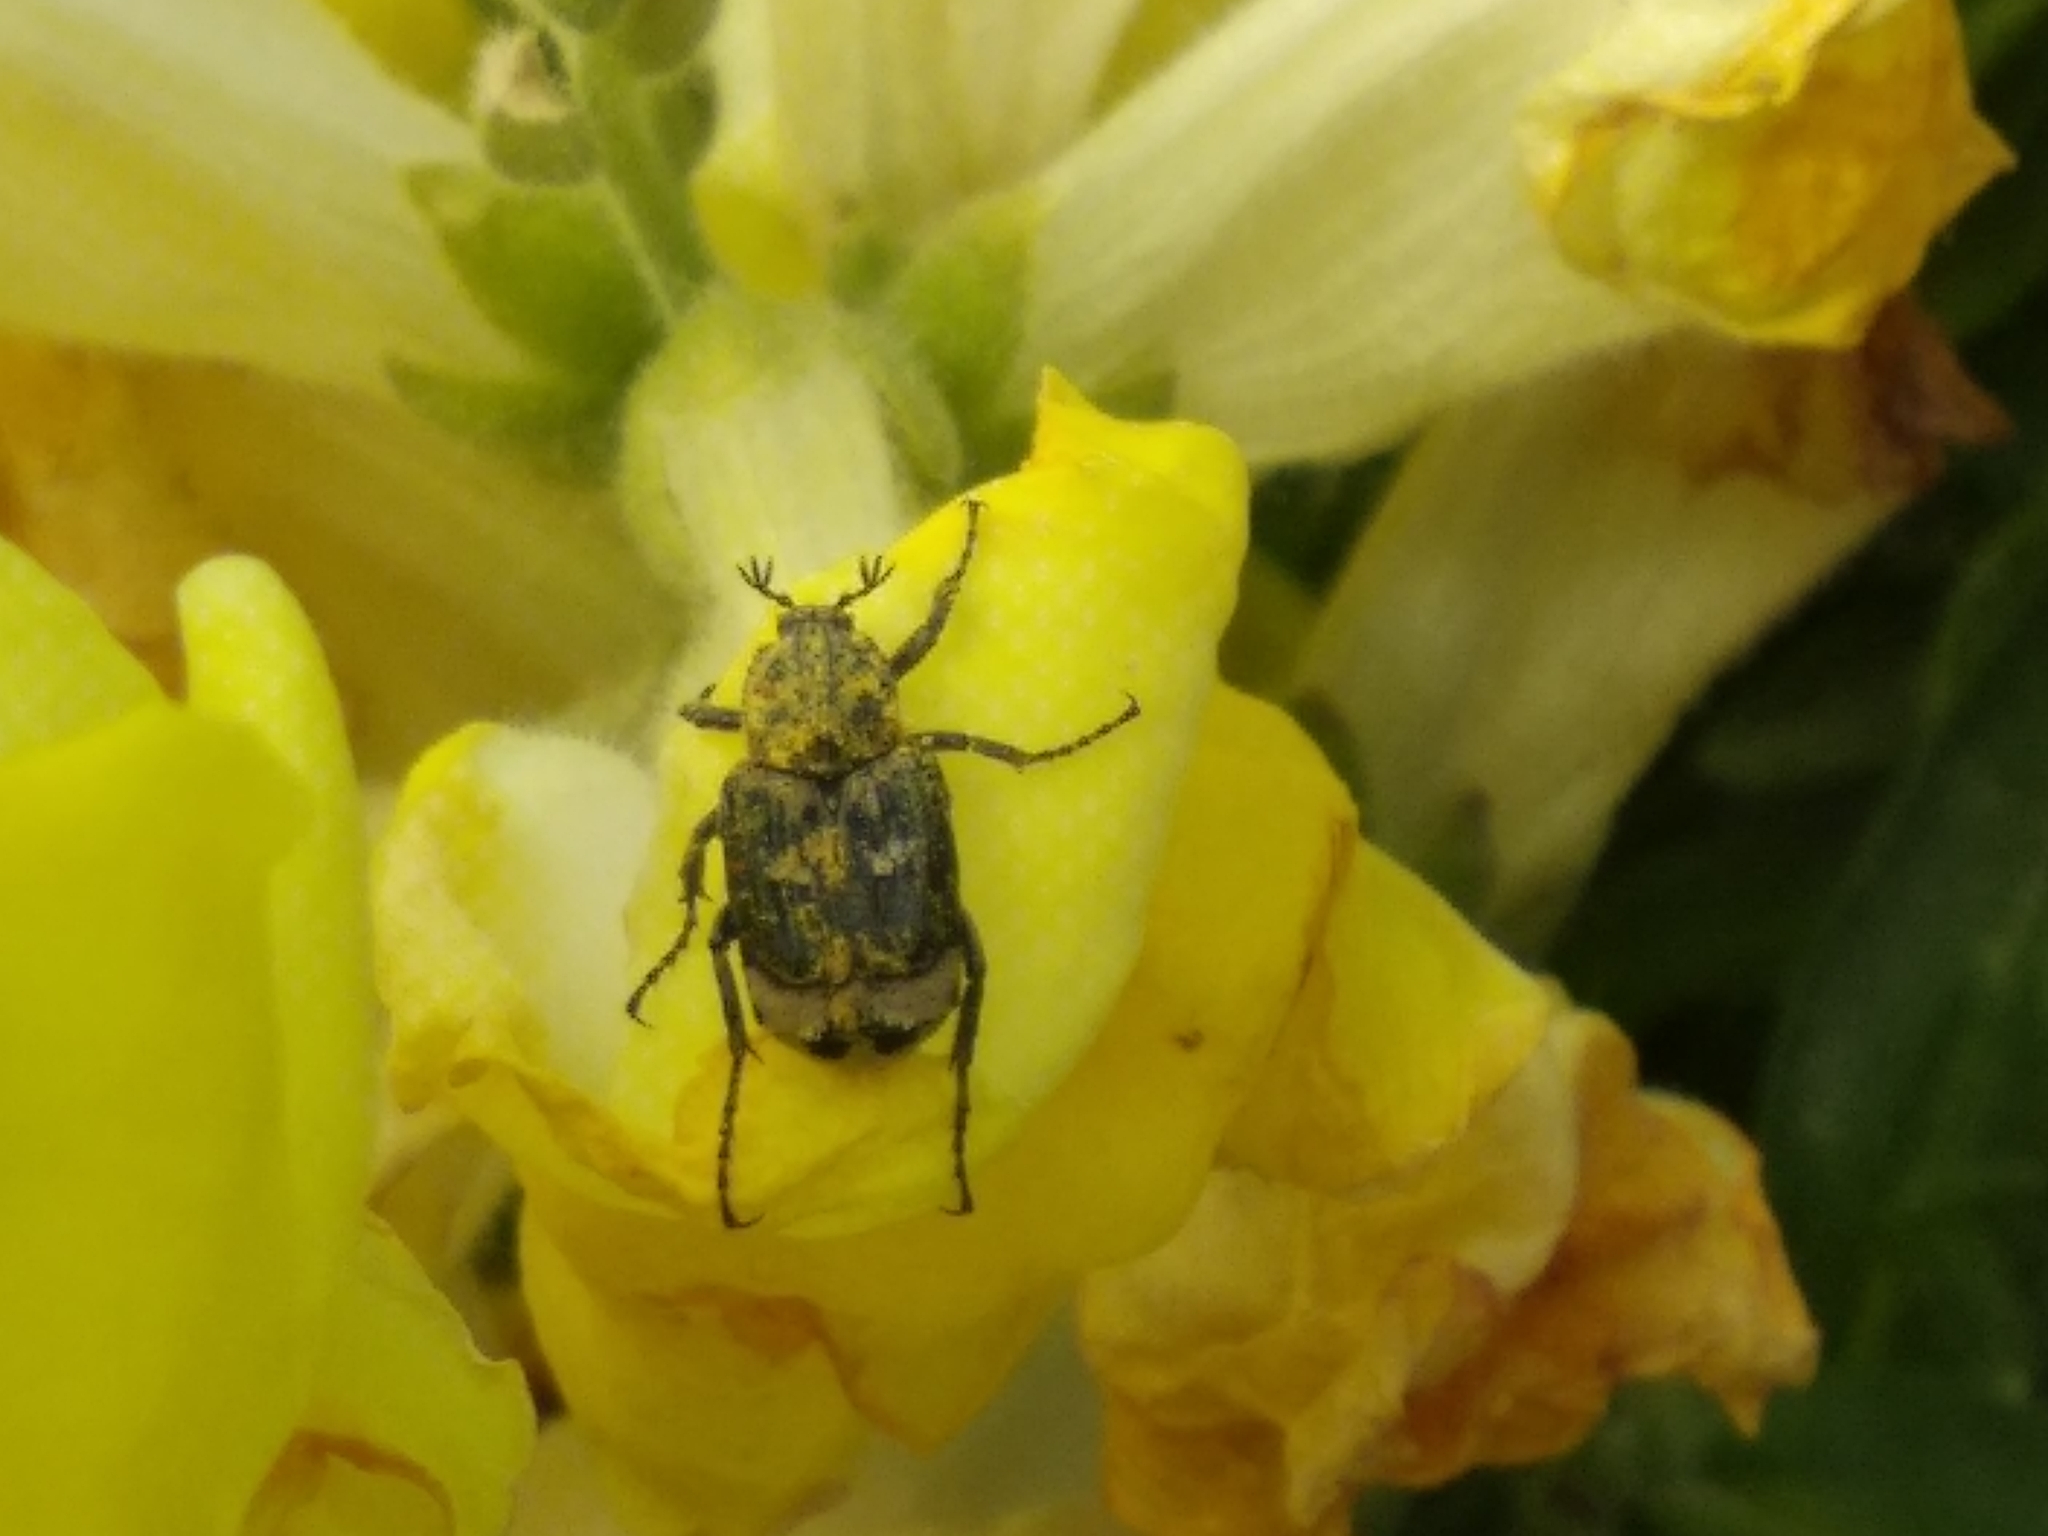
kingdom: Animalia
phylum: Arthropoda
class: Insecta
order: Coleoptera
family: Scarabaeidae
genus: Valgus
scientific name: Valgus hemipterus
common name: Bug flower chafer
